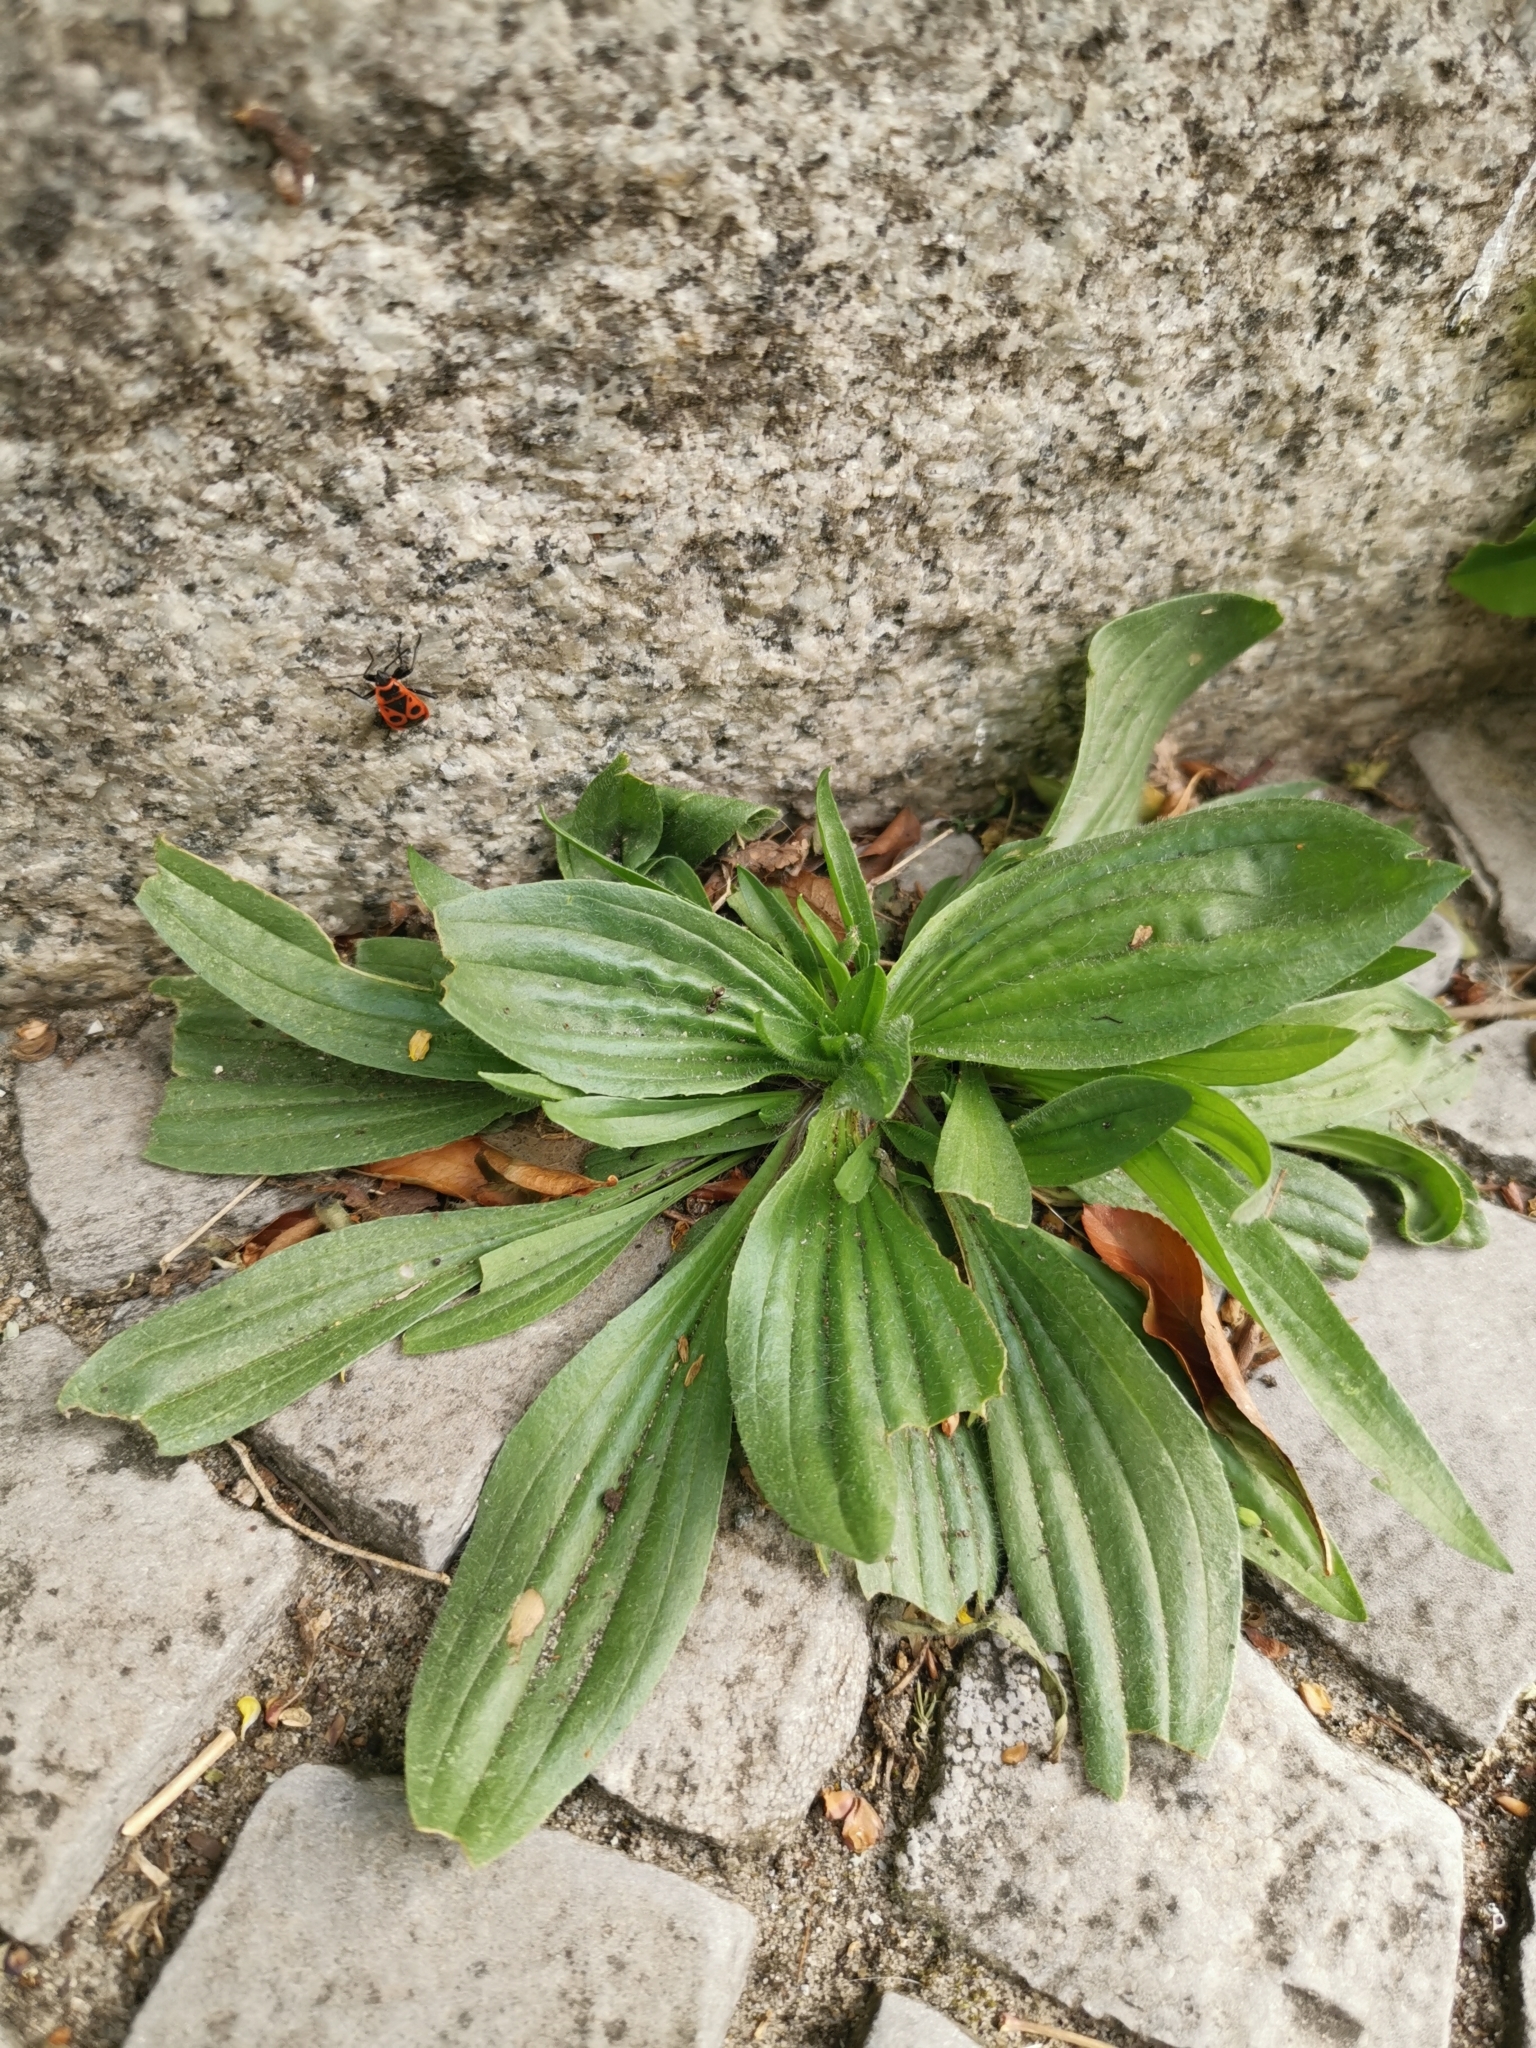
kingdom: Plantae
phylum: Tracheophyta
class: Magnoliopsida
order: Lamiales
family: Plantaginaceae
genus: Plantago
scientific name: Plantago lanceolata
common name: Ribwort plantain
